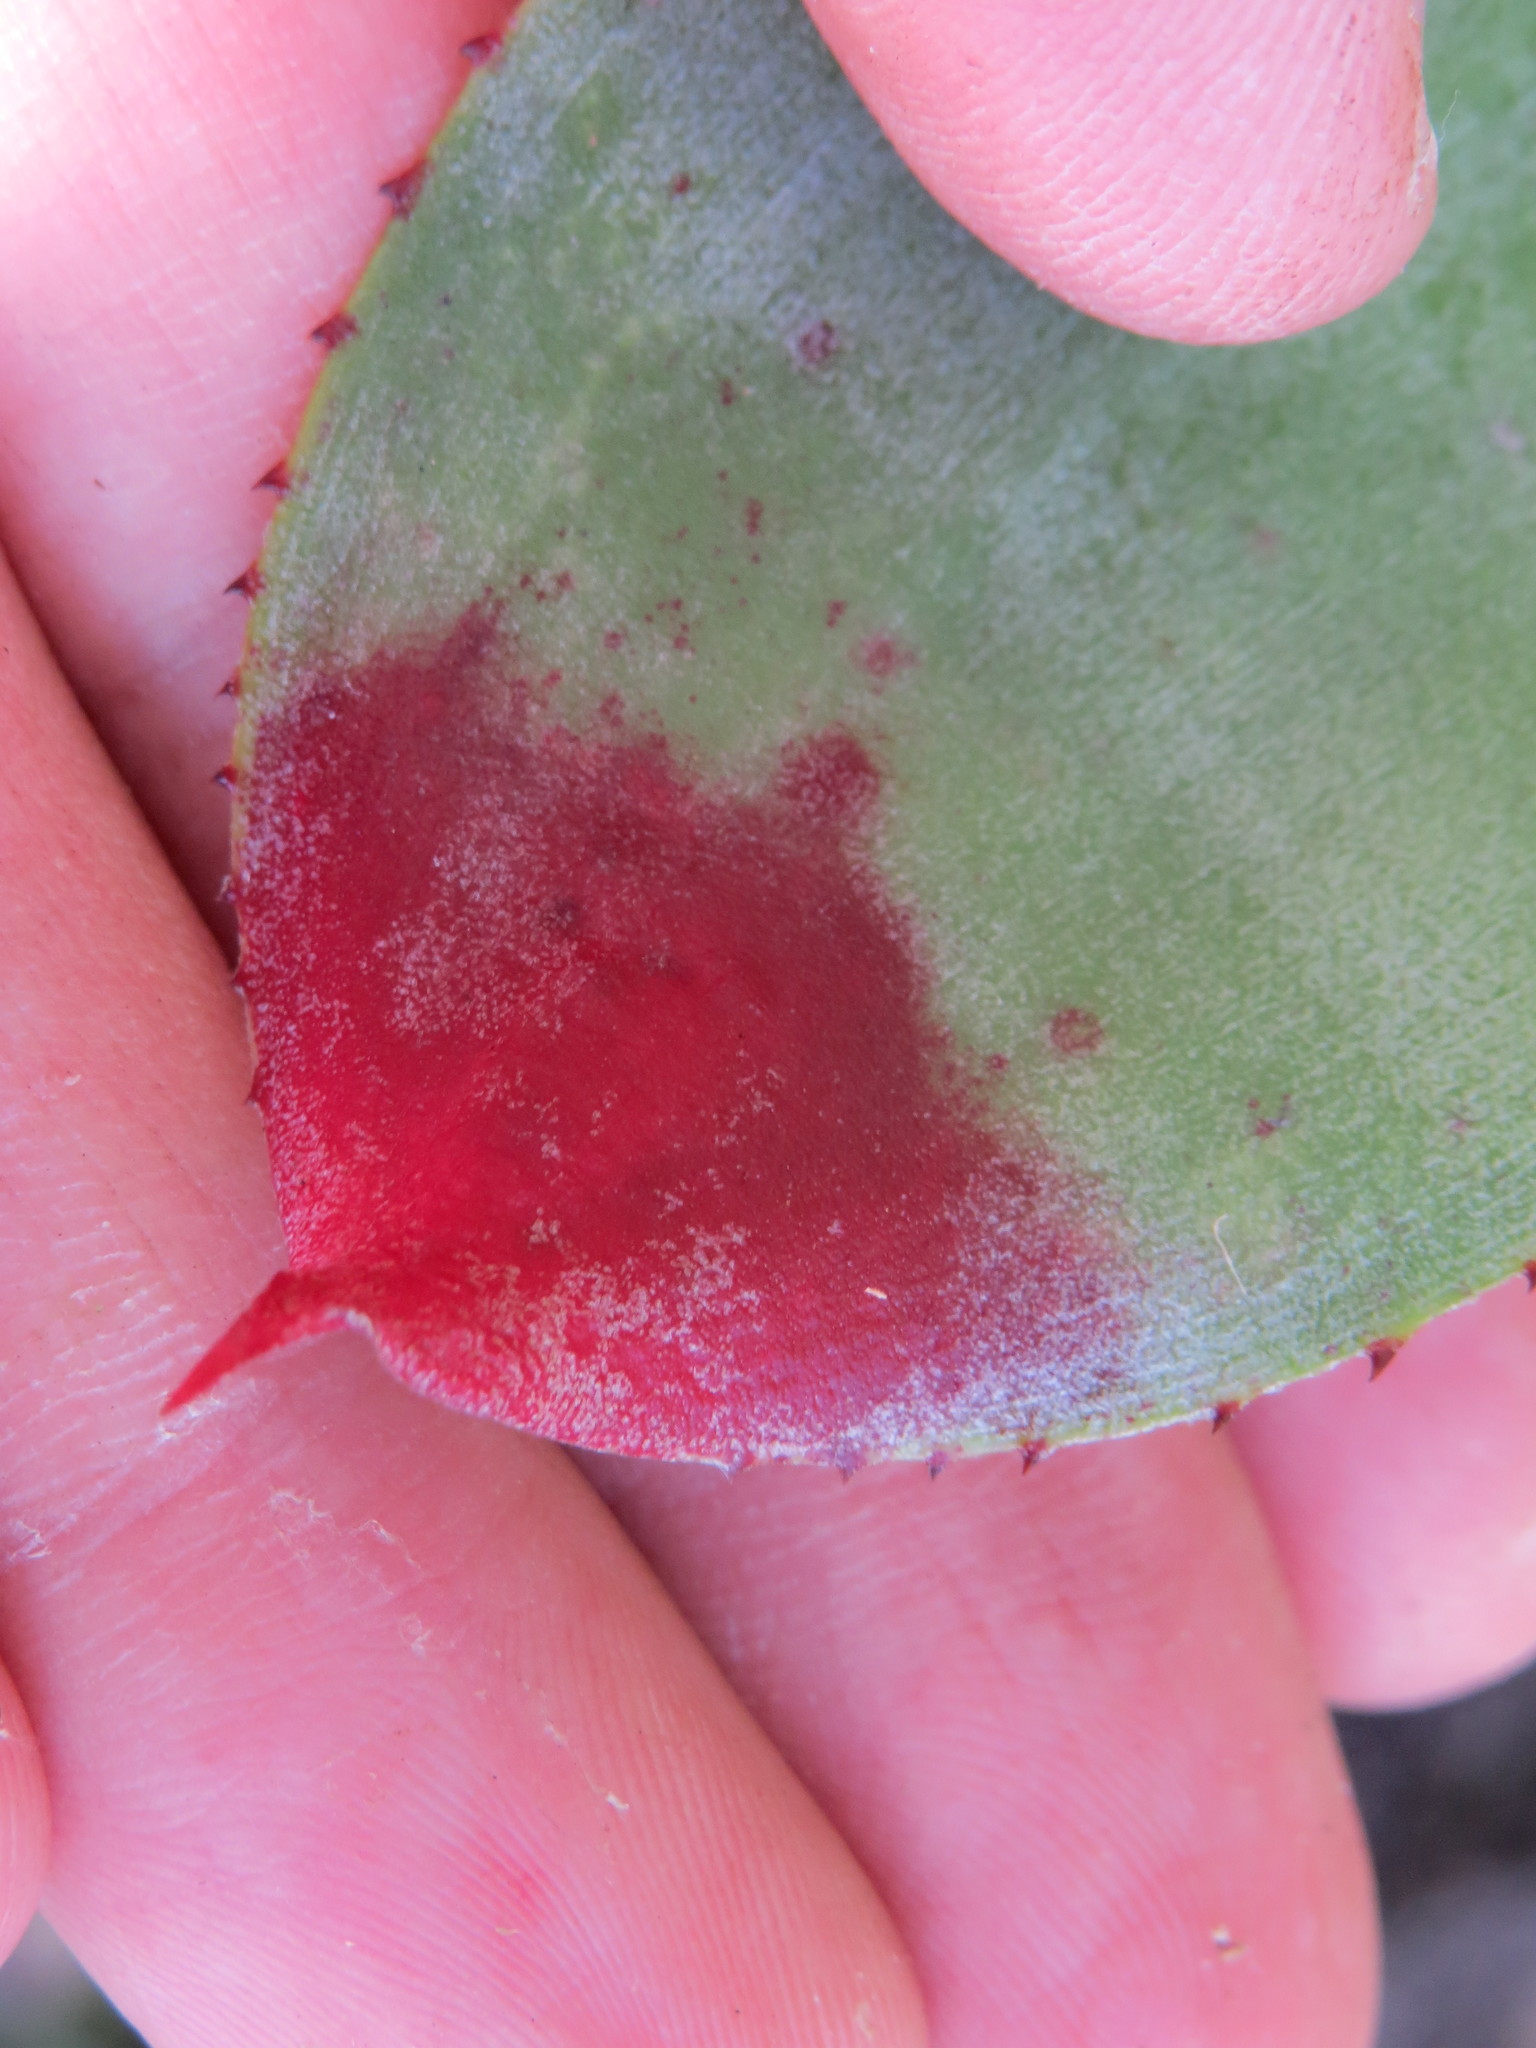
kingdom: Plantae
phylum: Tracheophyta
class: Liliopsida
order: Poales
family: Bromeliaceae
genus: Neoregelia
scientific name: Neoregelia cruenta
